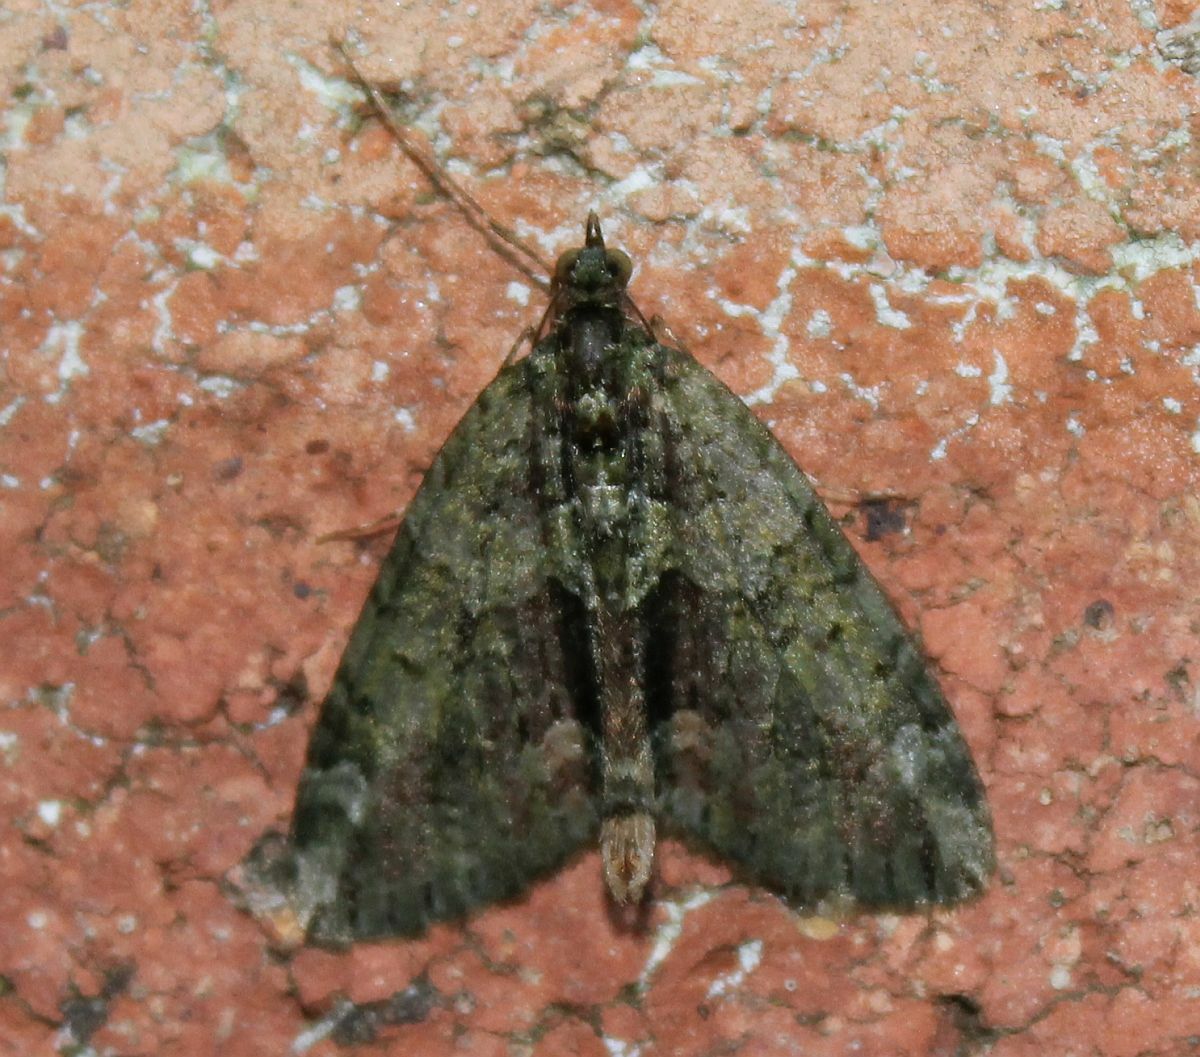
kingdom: Animalia
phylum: Arthropoda
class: Insecta
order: Lepidoptera
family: Geometridae
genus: Chloroclysta
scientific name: Chloroclysta siterata
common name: Red-green carpet
